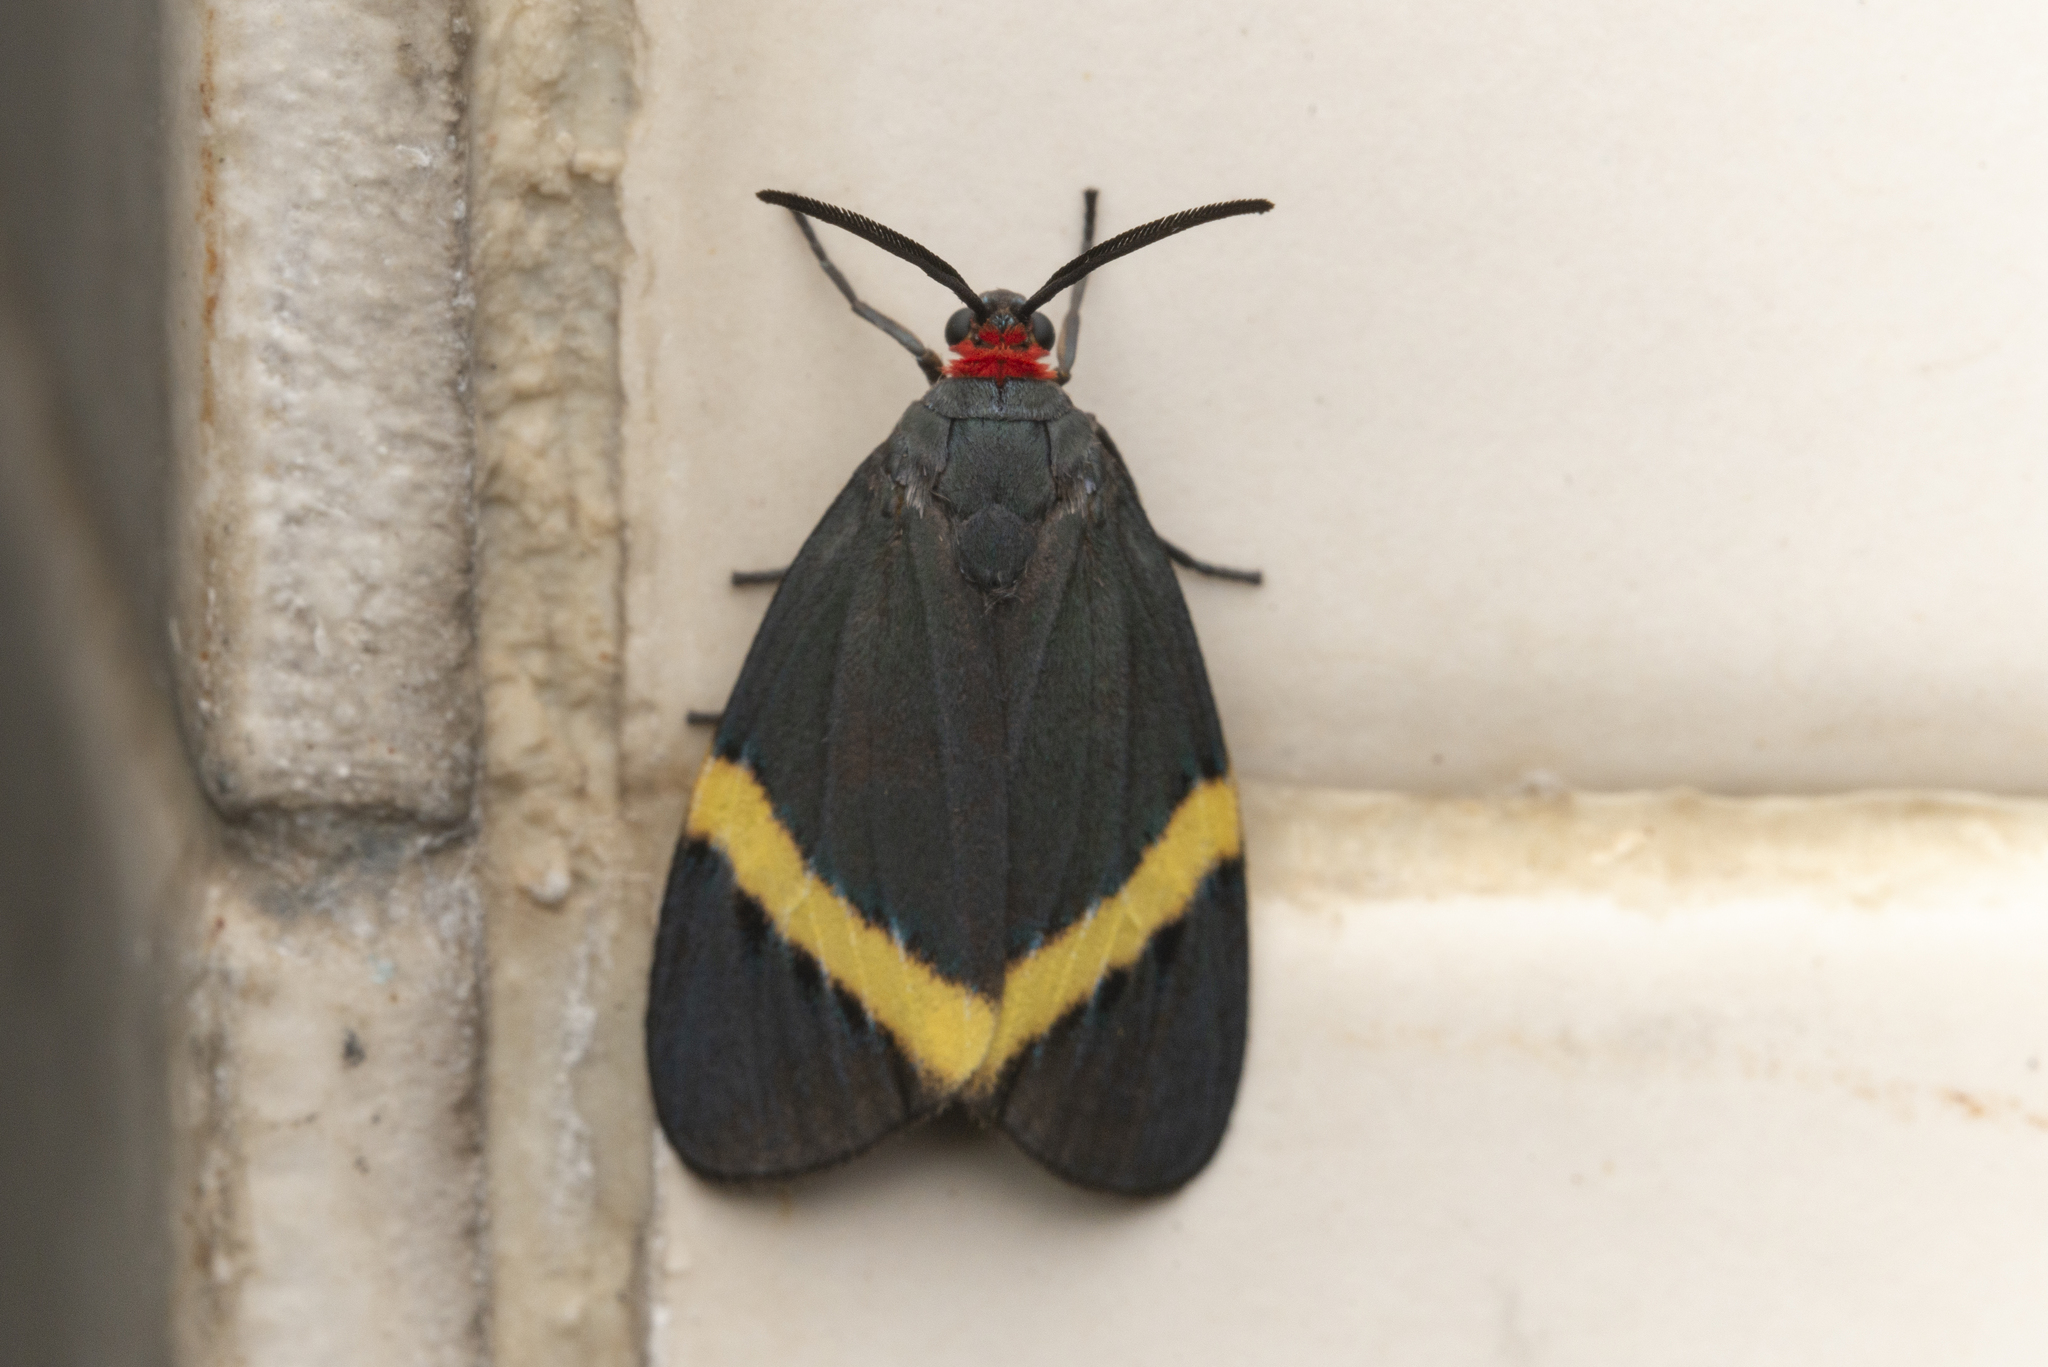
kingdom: Animalia
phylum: Arthropoda
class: Insecta
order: Lepidoptera
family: Zygaenidae
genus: Pidorus
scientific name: Pidorus gemina
